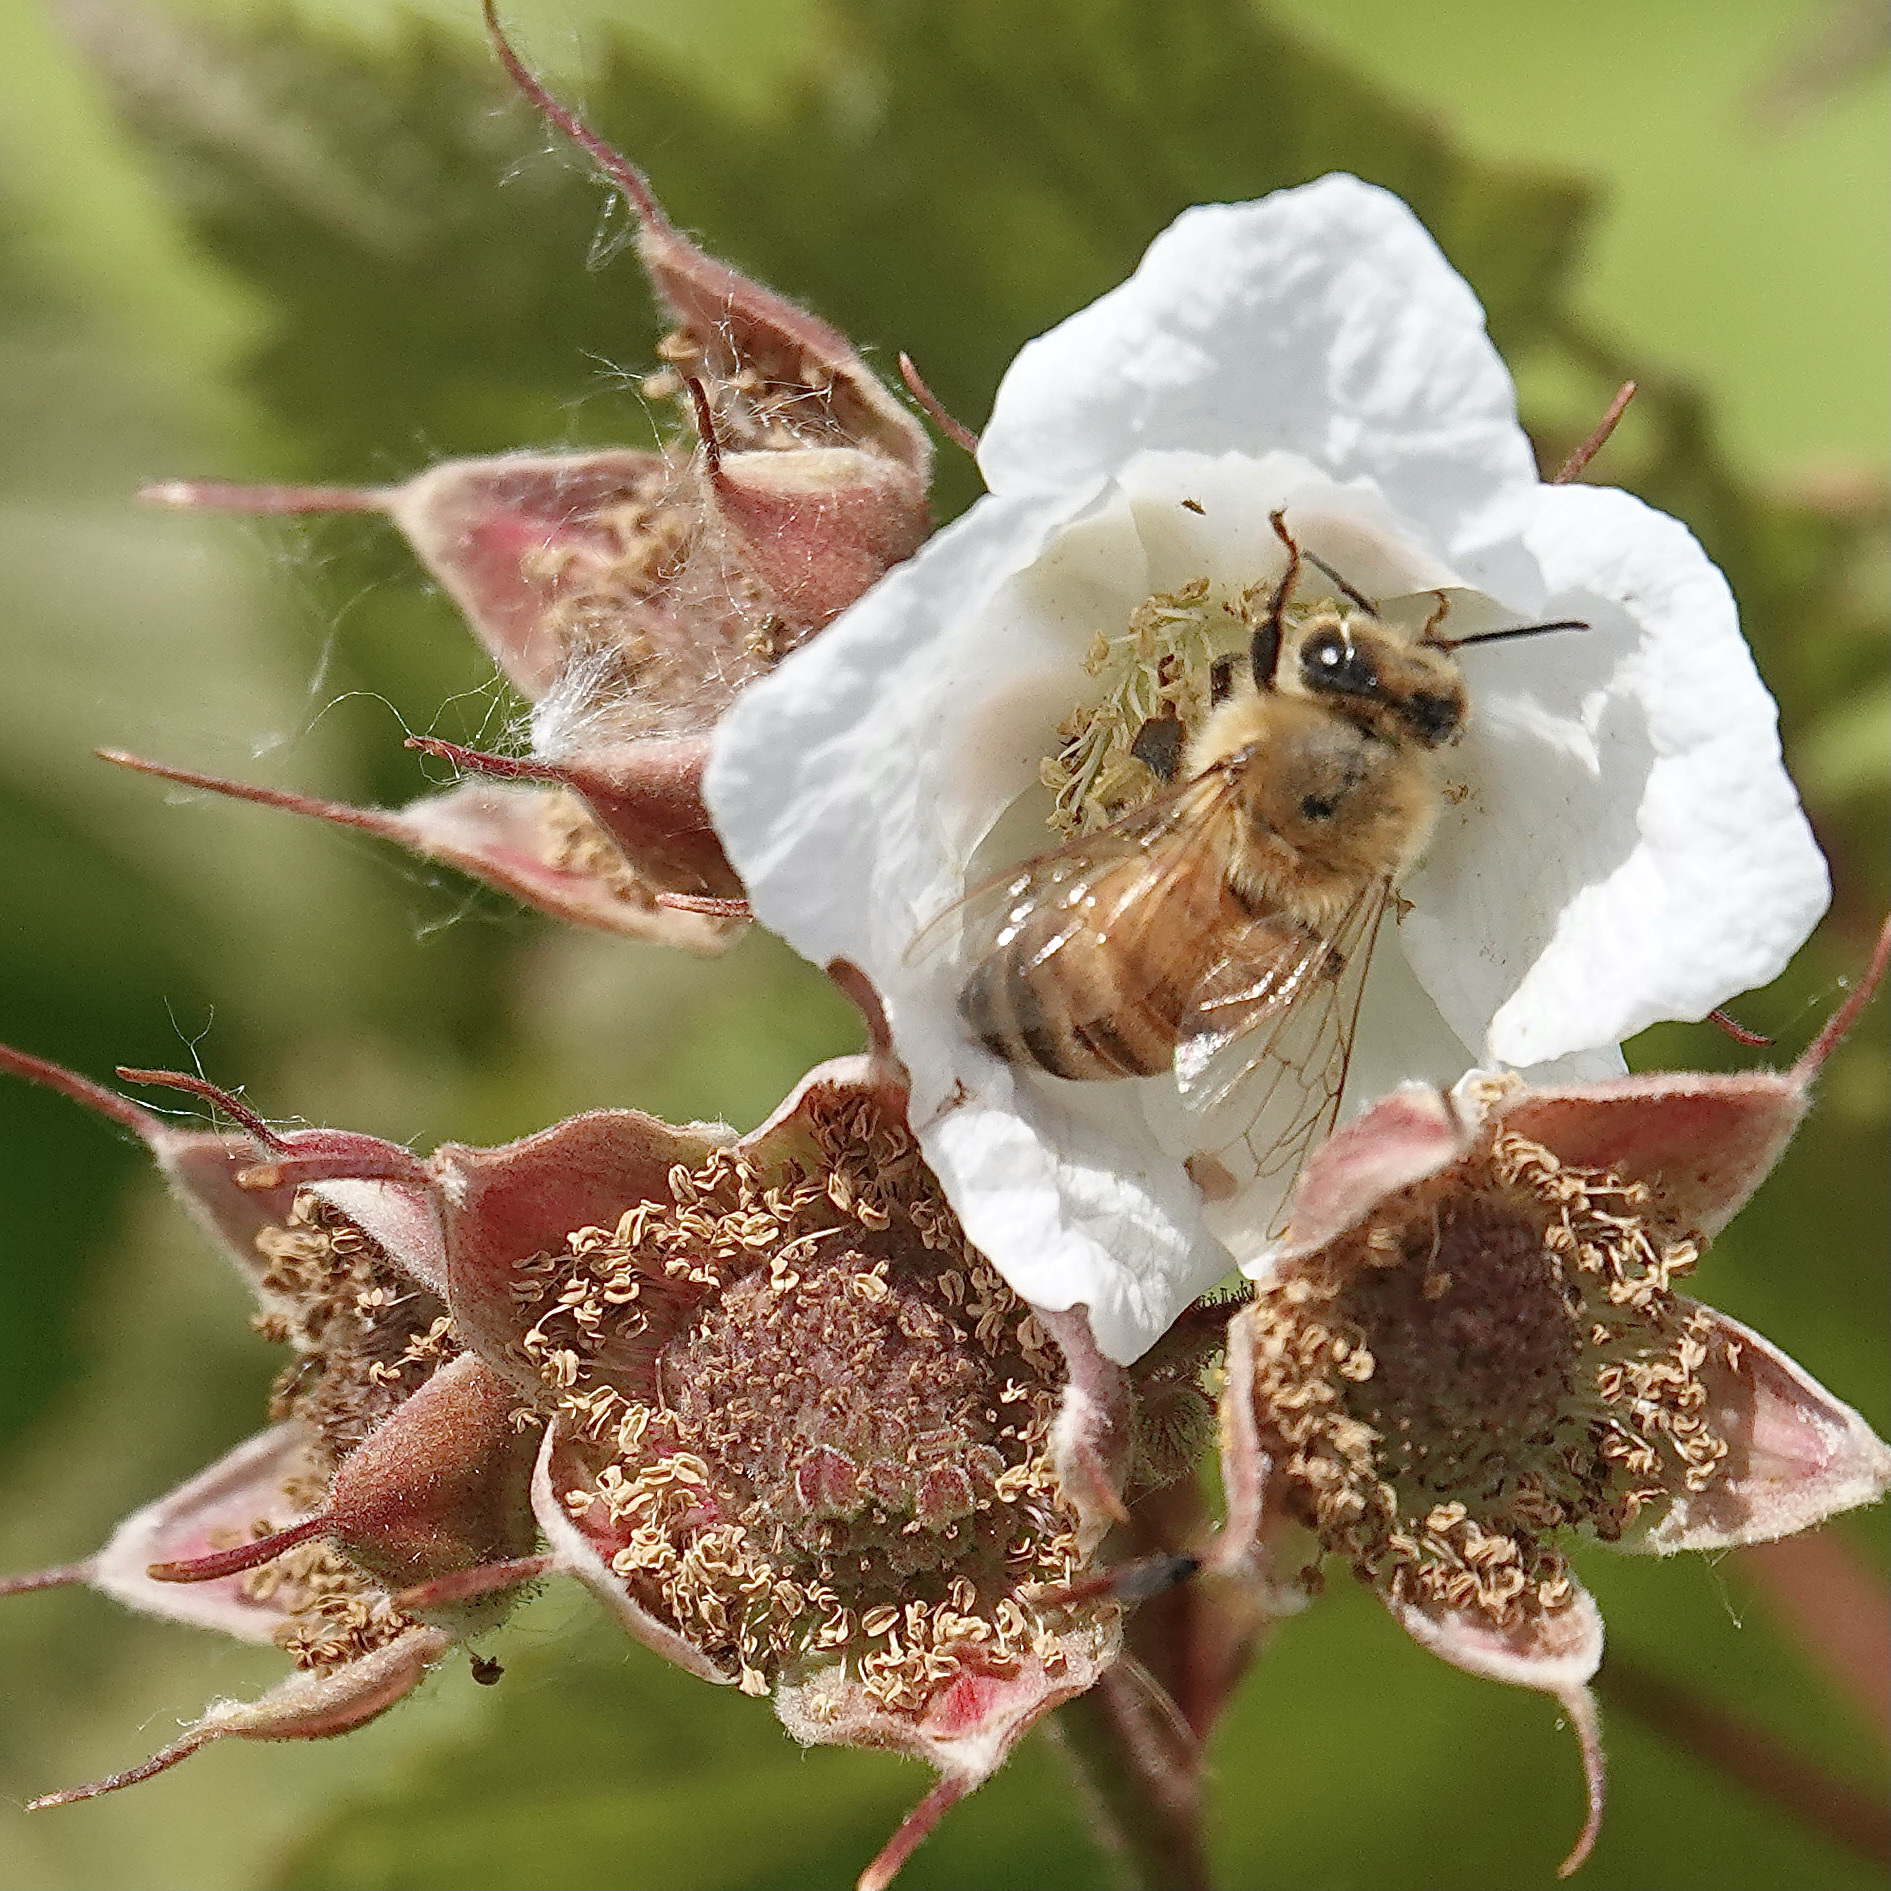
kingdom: Animalia
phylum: Arthropoda
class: Insecta
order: Hymenoptera
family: Apidae
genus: Apis
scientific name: Apis mellifera
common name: Honey bee
